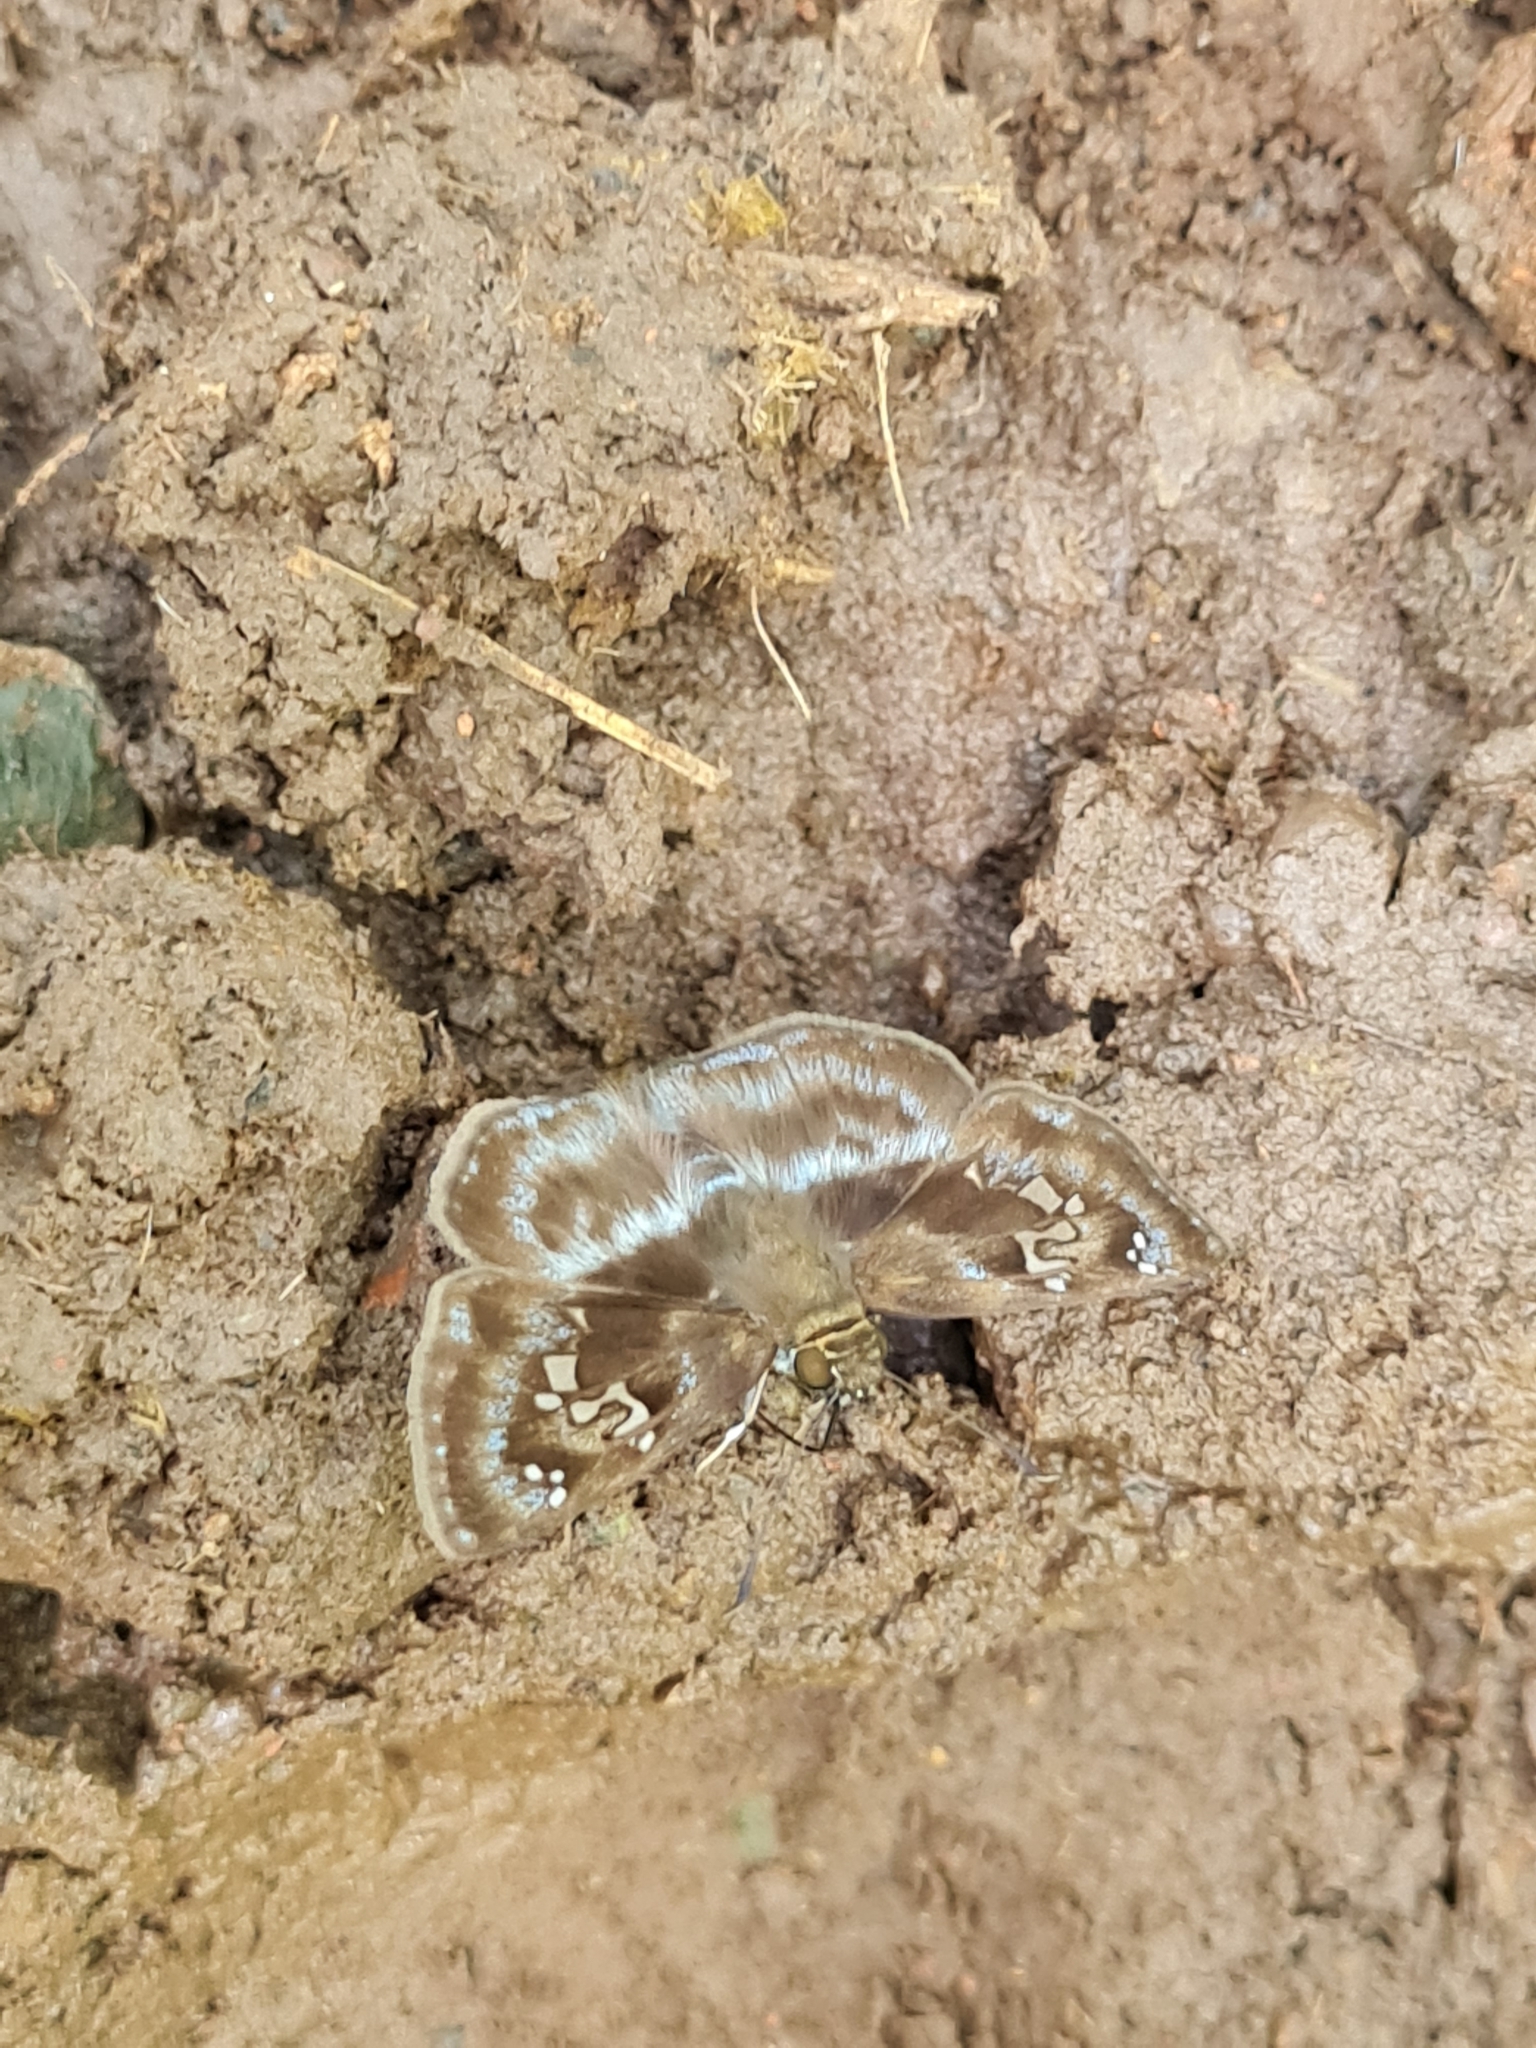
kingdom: Animalia
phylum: Arthropoda
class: Insecta
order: Lepidoptera
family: Hesperiidae
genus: Quadrus
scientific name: Quadrus cerialis
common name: Common blue-skipper
